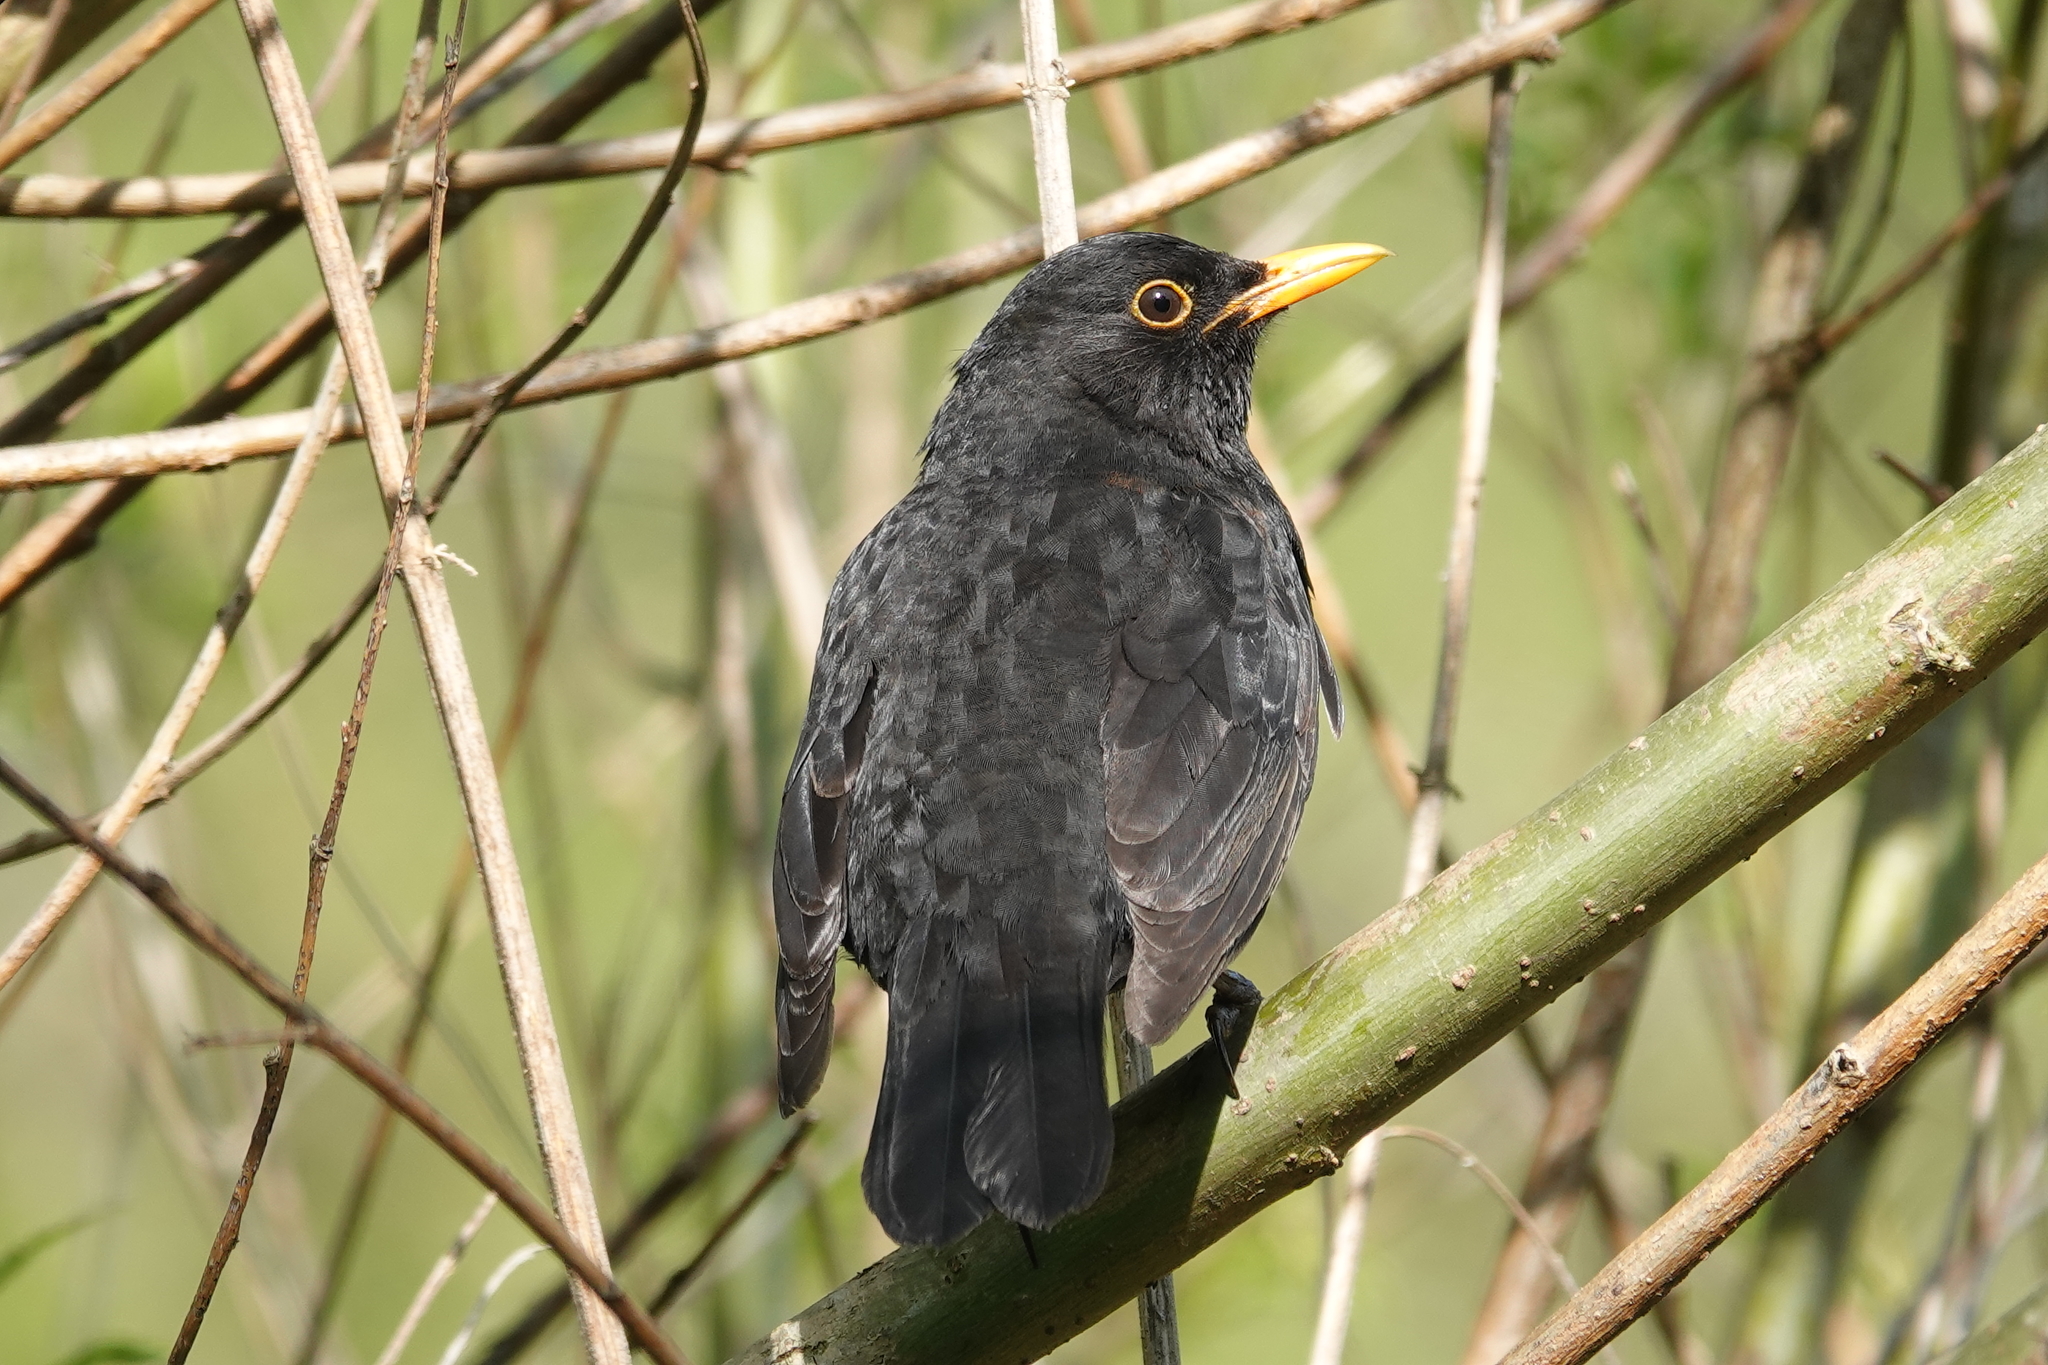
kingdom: Animalia
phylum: Chordata
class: Aves
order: Passeriformes
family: Turdidae
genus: Turdus
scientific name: Turdus merula
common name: Common blackbird
